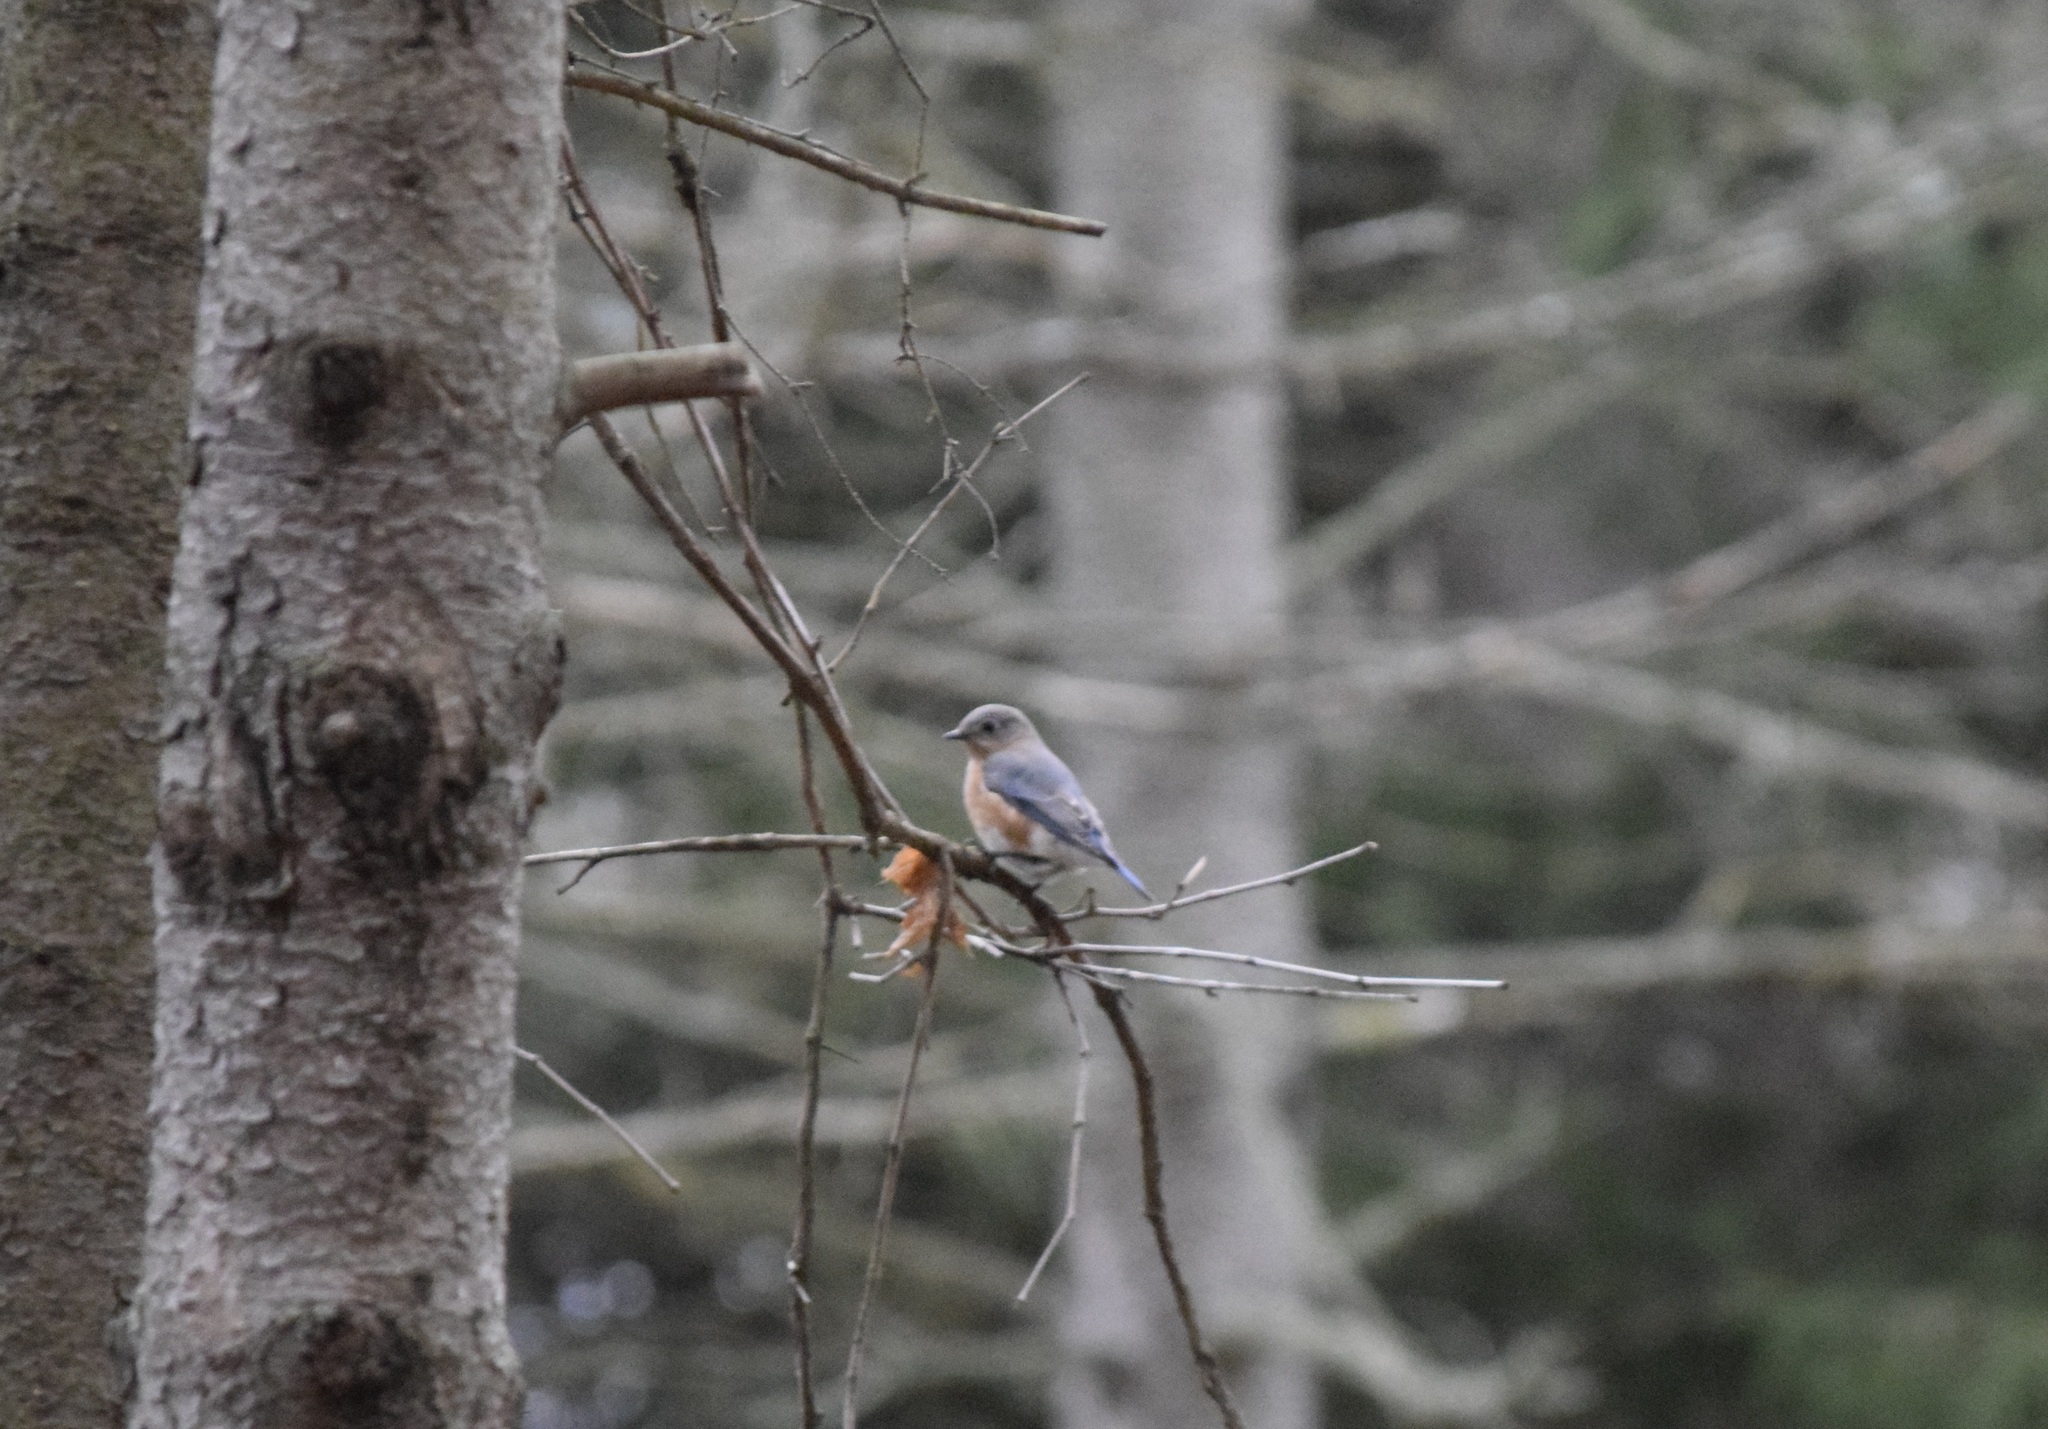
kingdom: Animalia
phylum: Chordata
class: Aves
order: Passeriformes
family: Turdidae
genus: Sialia
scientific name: Sialia sialis
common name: Eastern bluebird
